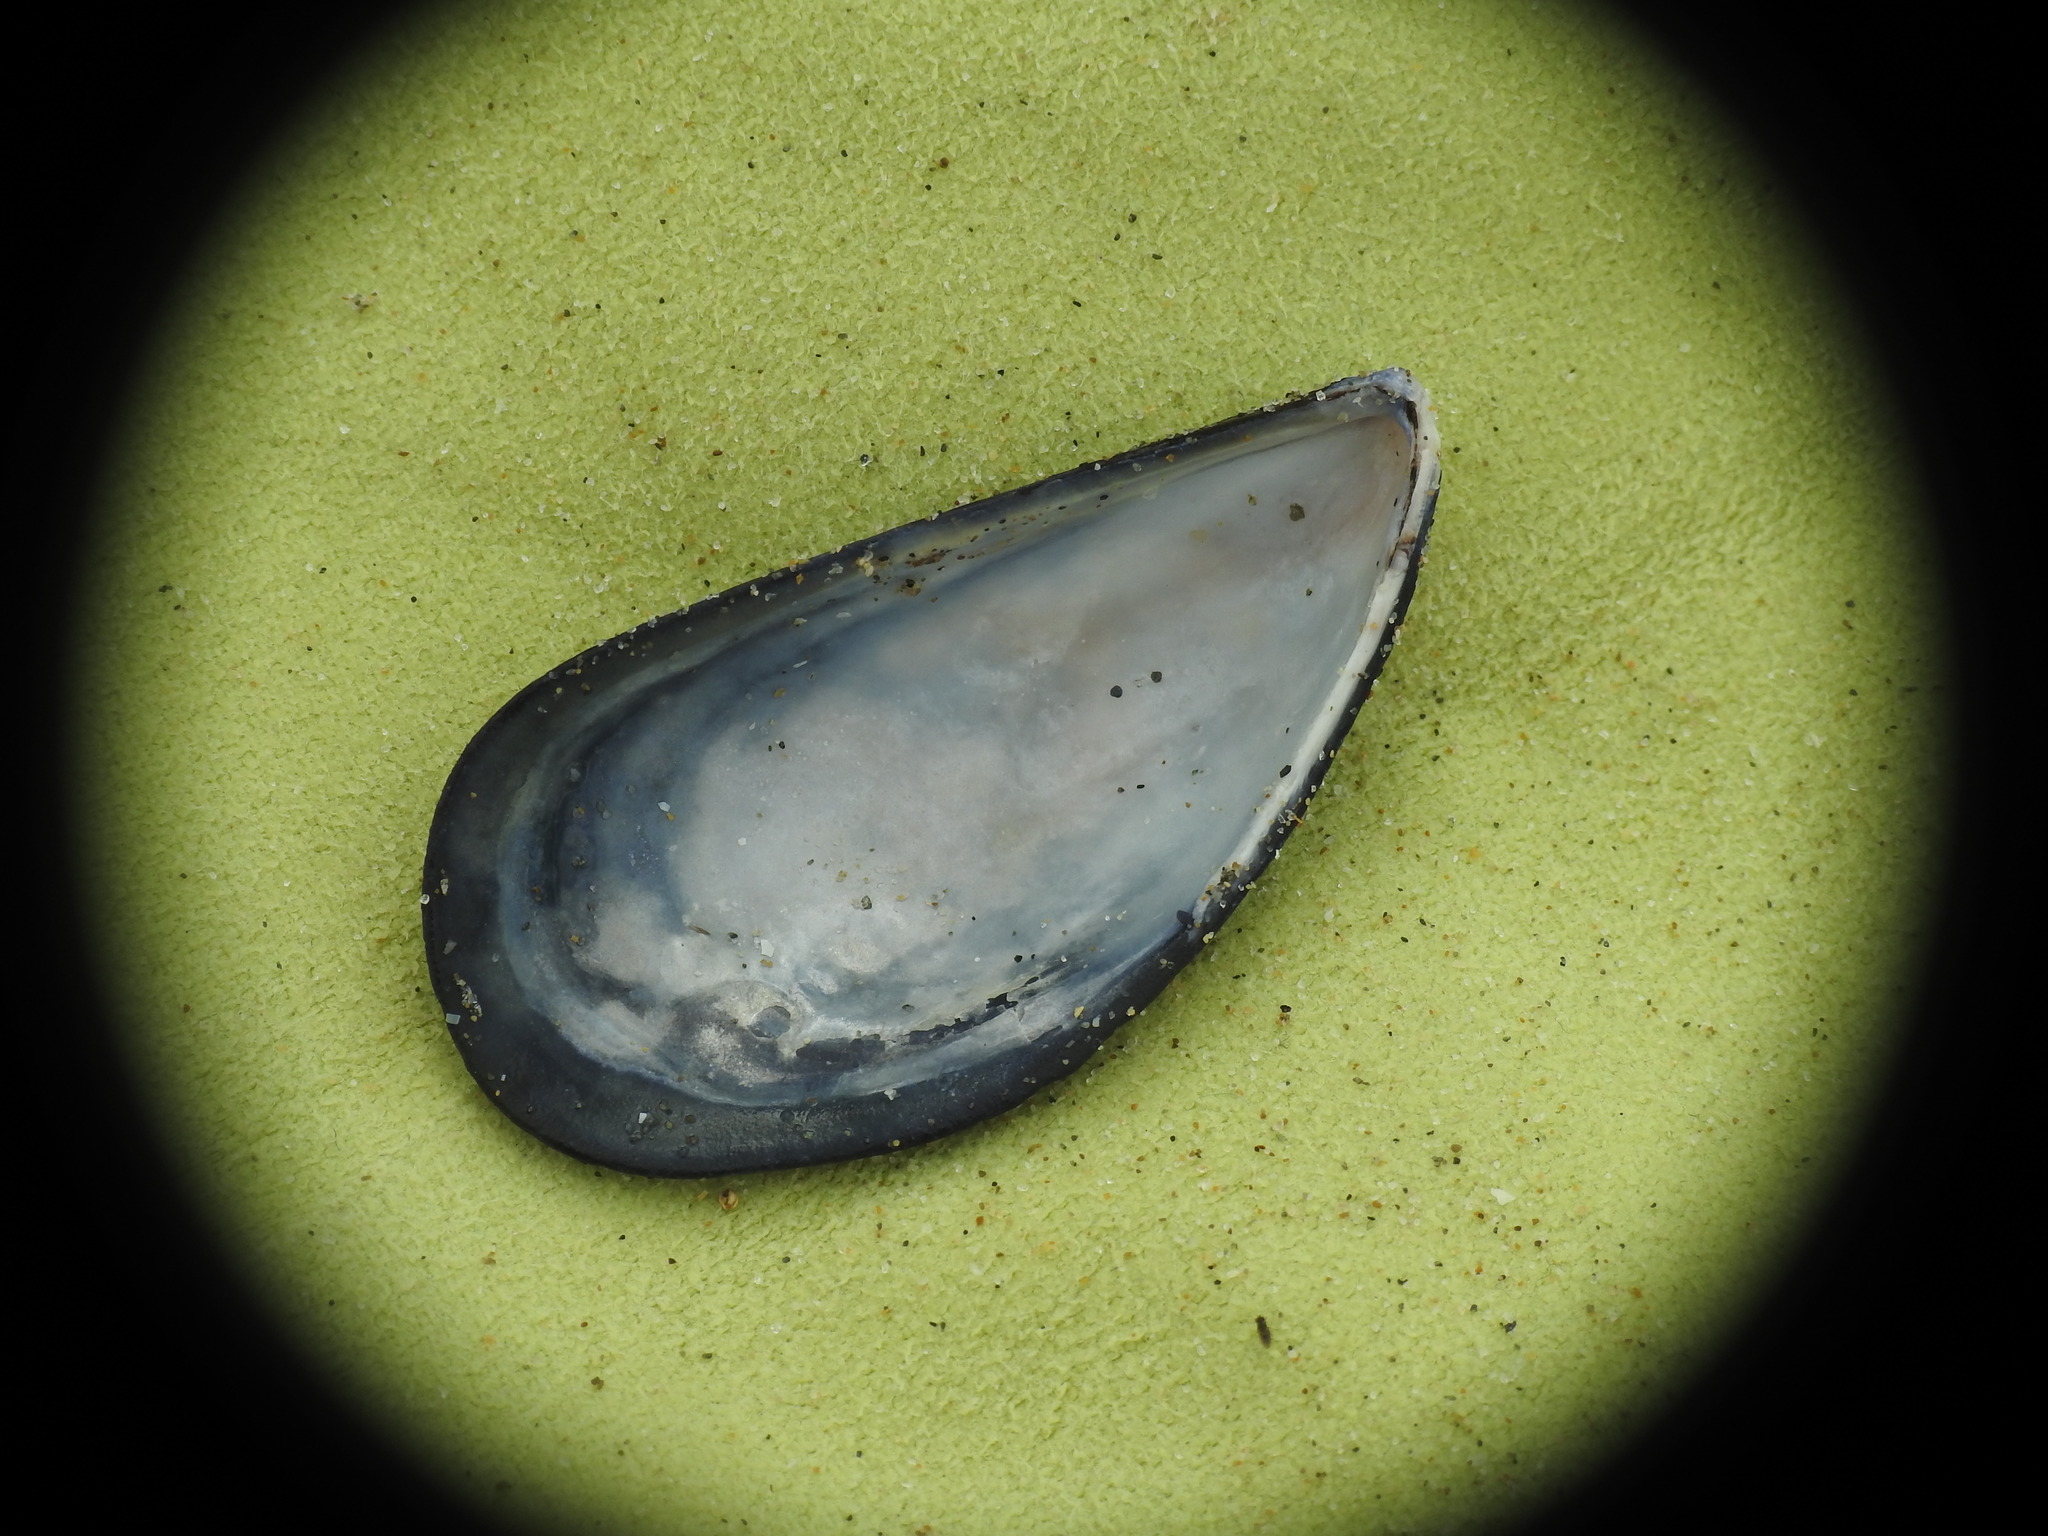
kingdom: Animalia
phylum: Mollusca
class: Bivalvia
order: Mytilida
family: Mytilidae
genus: Mytilus
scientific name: Mytilus galloprovincialis
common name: Mediterranean mussel
